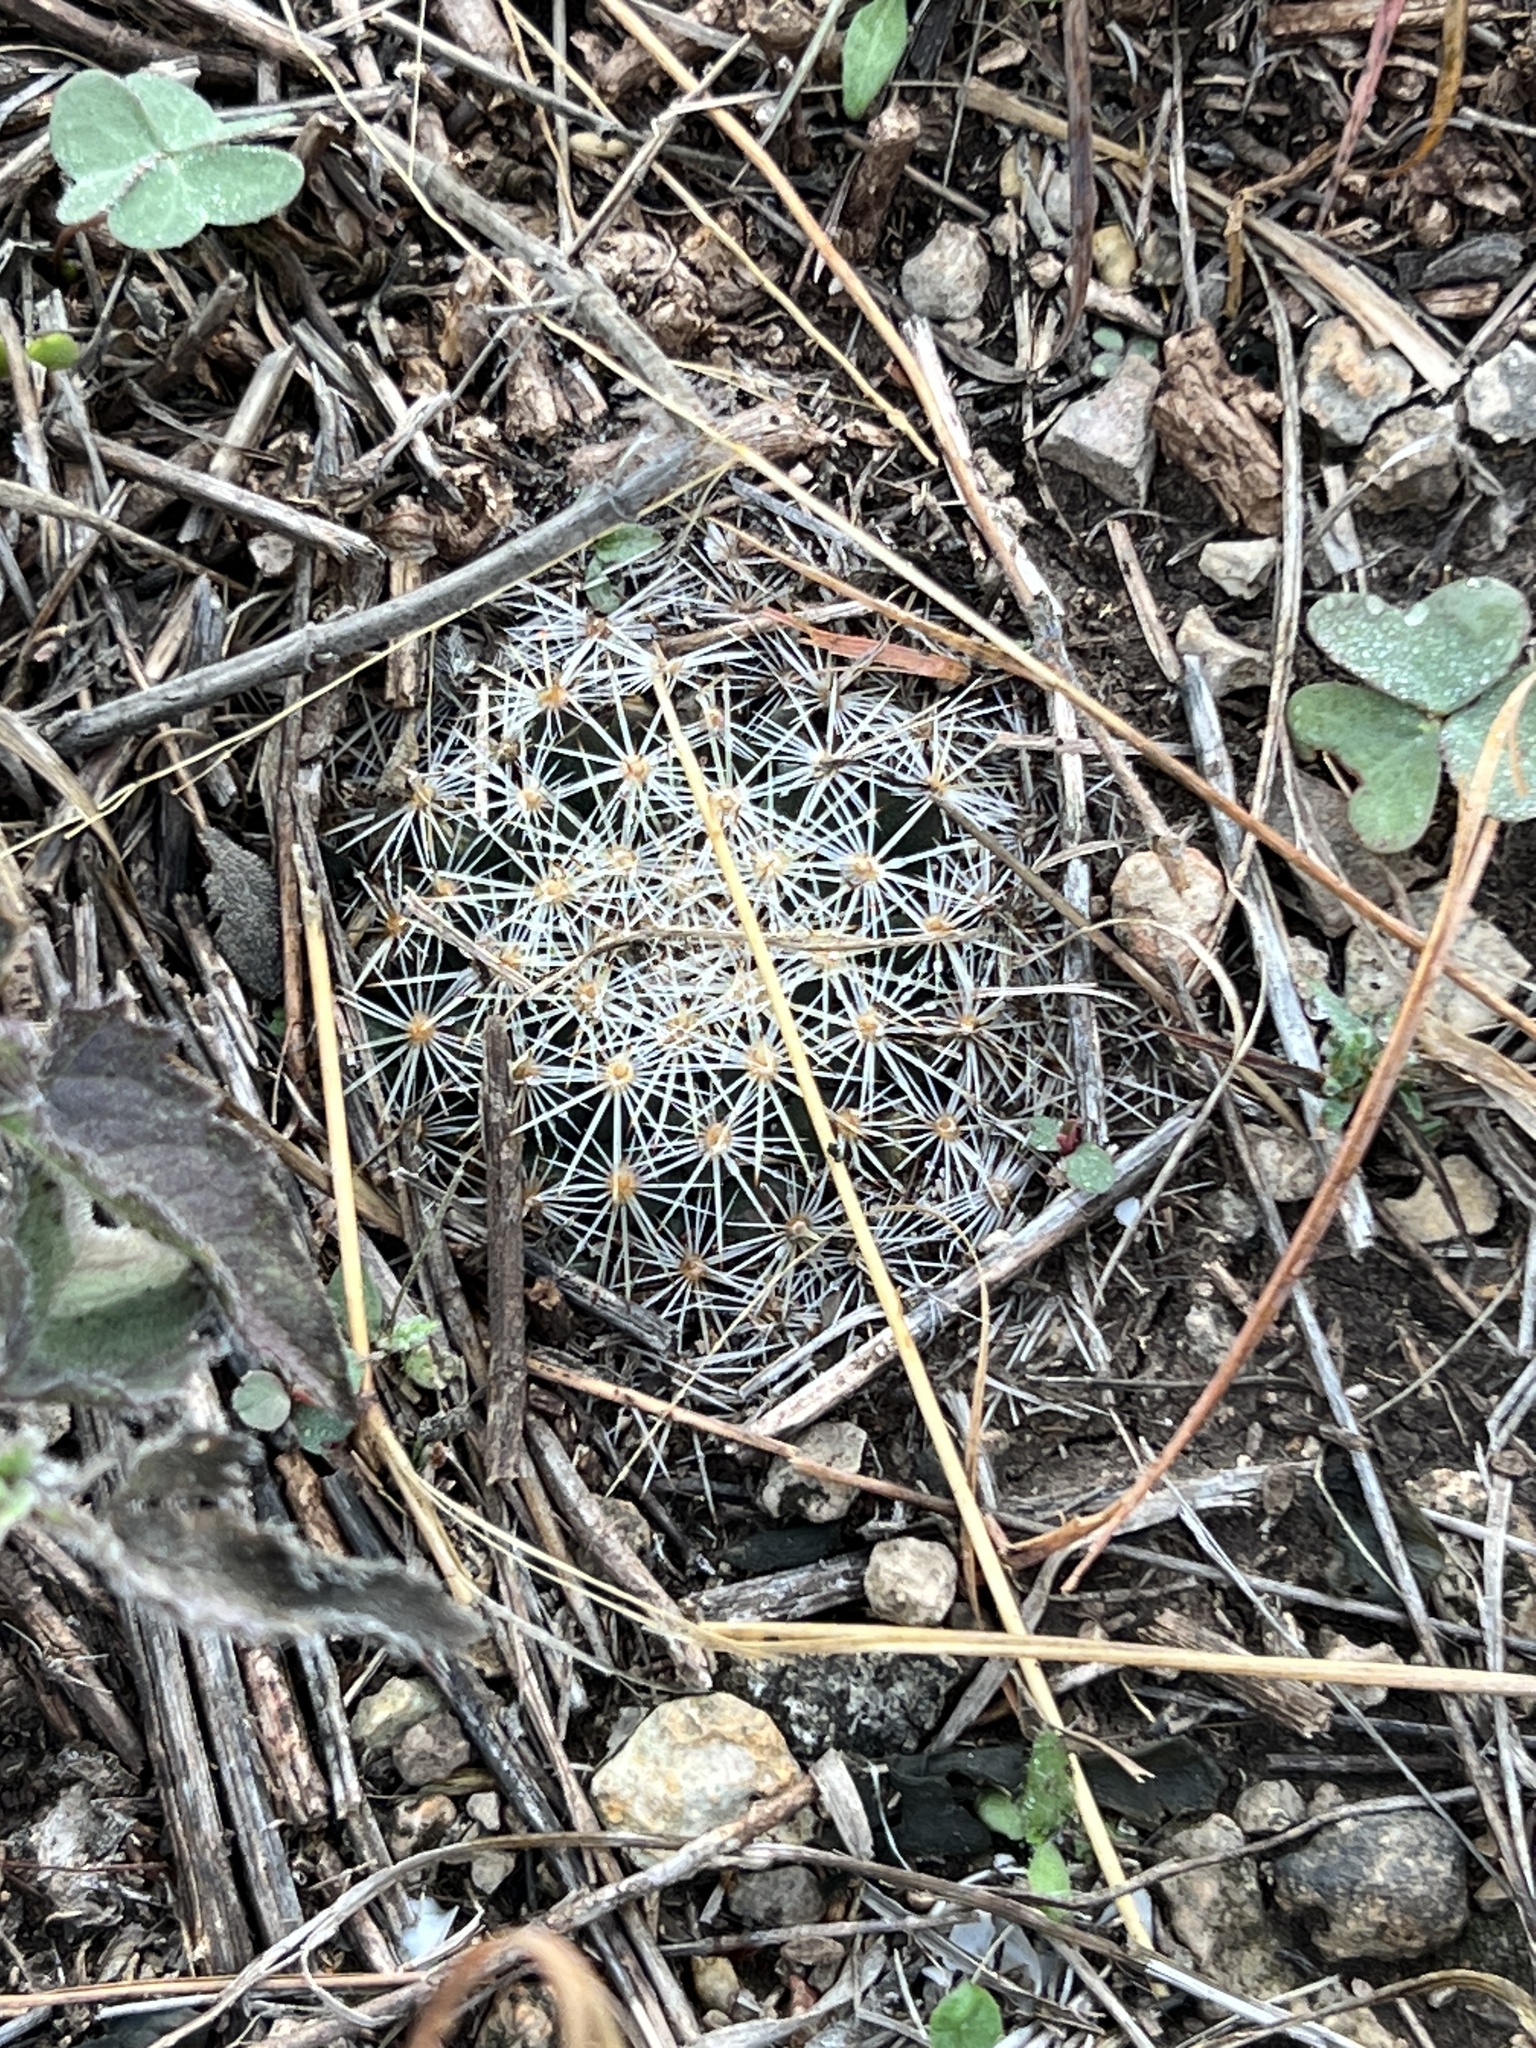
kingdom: Plantae
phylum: Tracheophyta
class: Magnoliopsida
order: Caryophyllales
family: Cactaceae
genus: Mammillaria
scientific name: Mammillaria heyderi
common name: Little nipple cactus
